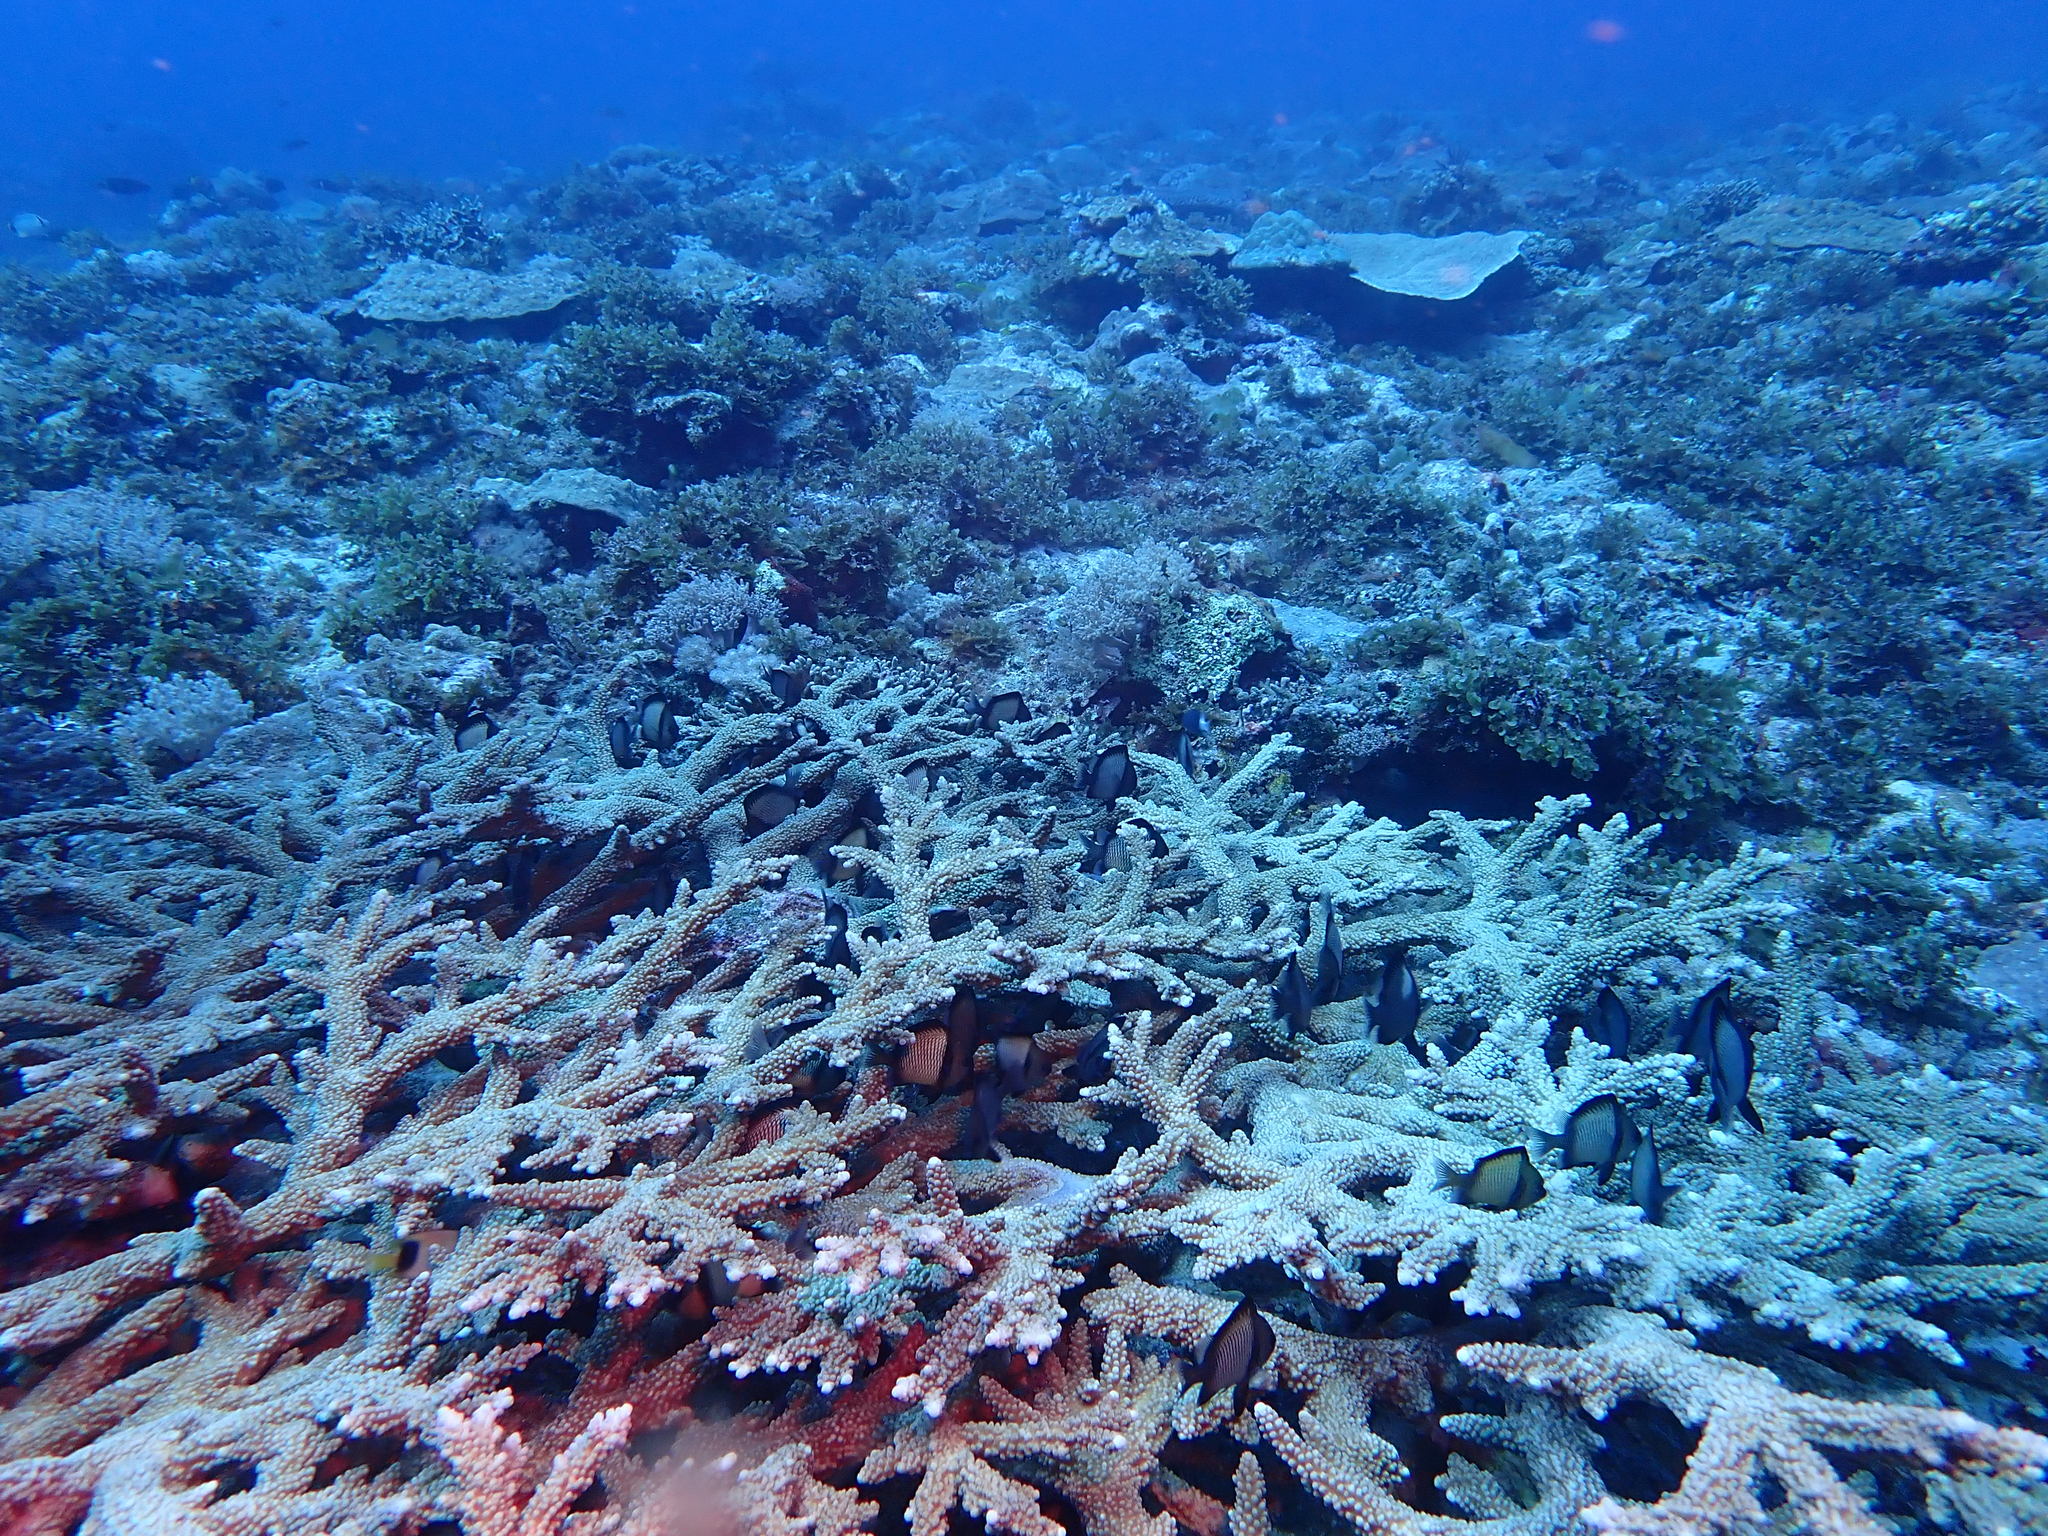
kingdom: Animalia
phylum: Chordata
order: Perciformes
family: Pomacentridae
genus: Dascyllus
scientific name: Dascyllus reticulatus
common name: Reticulated dascyllus
